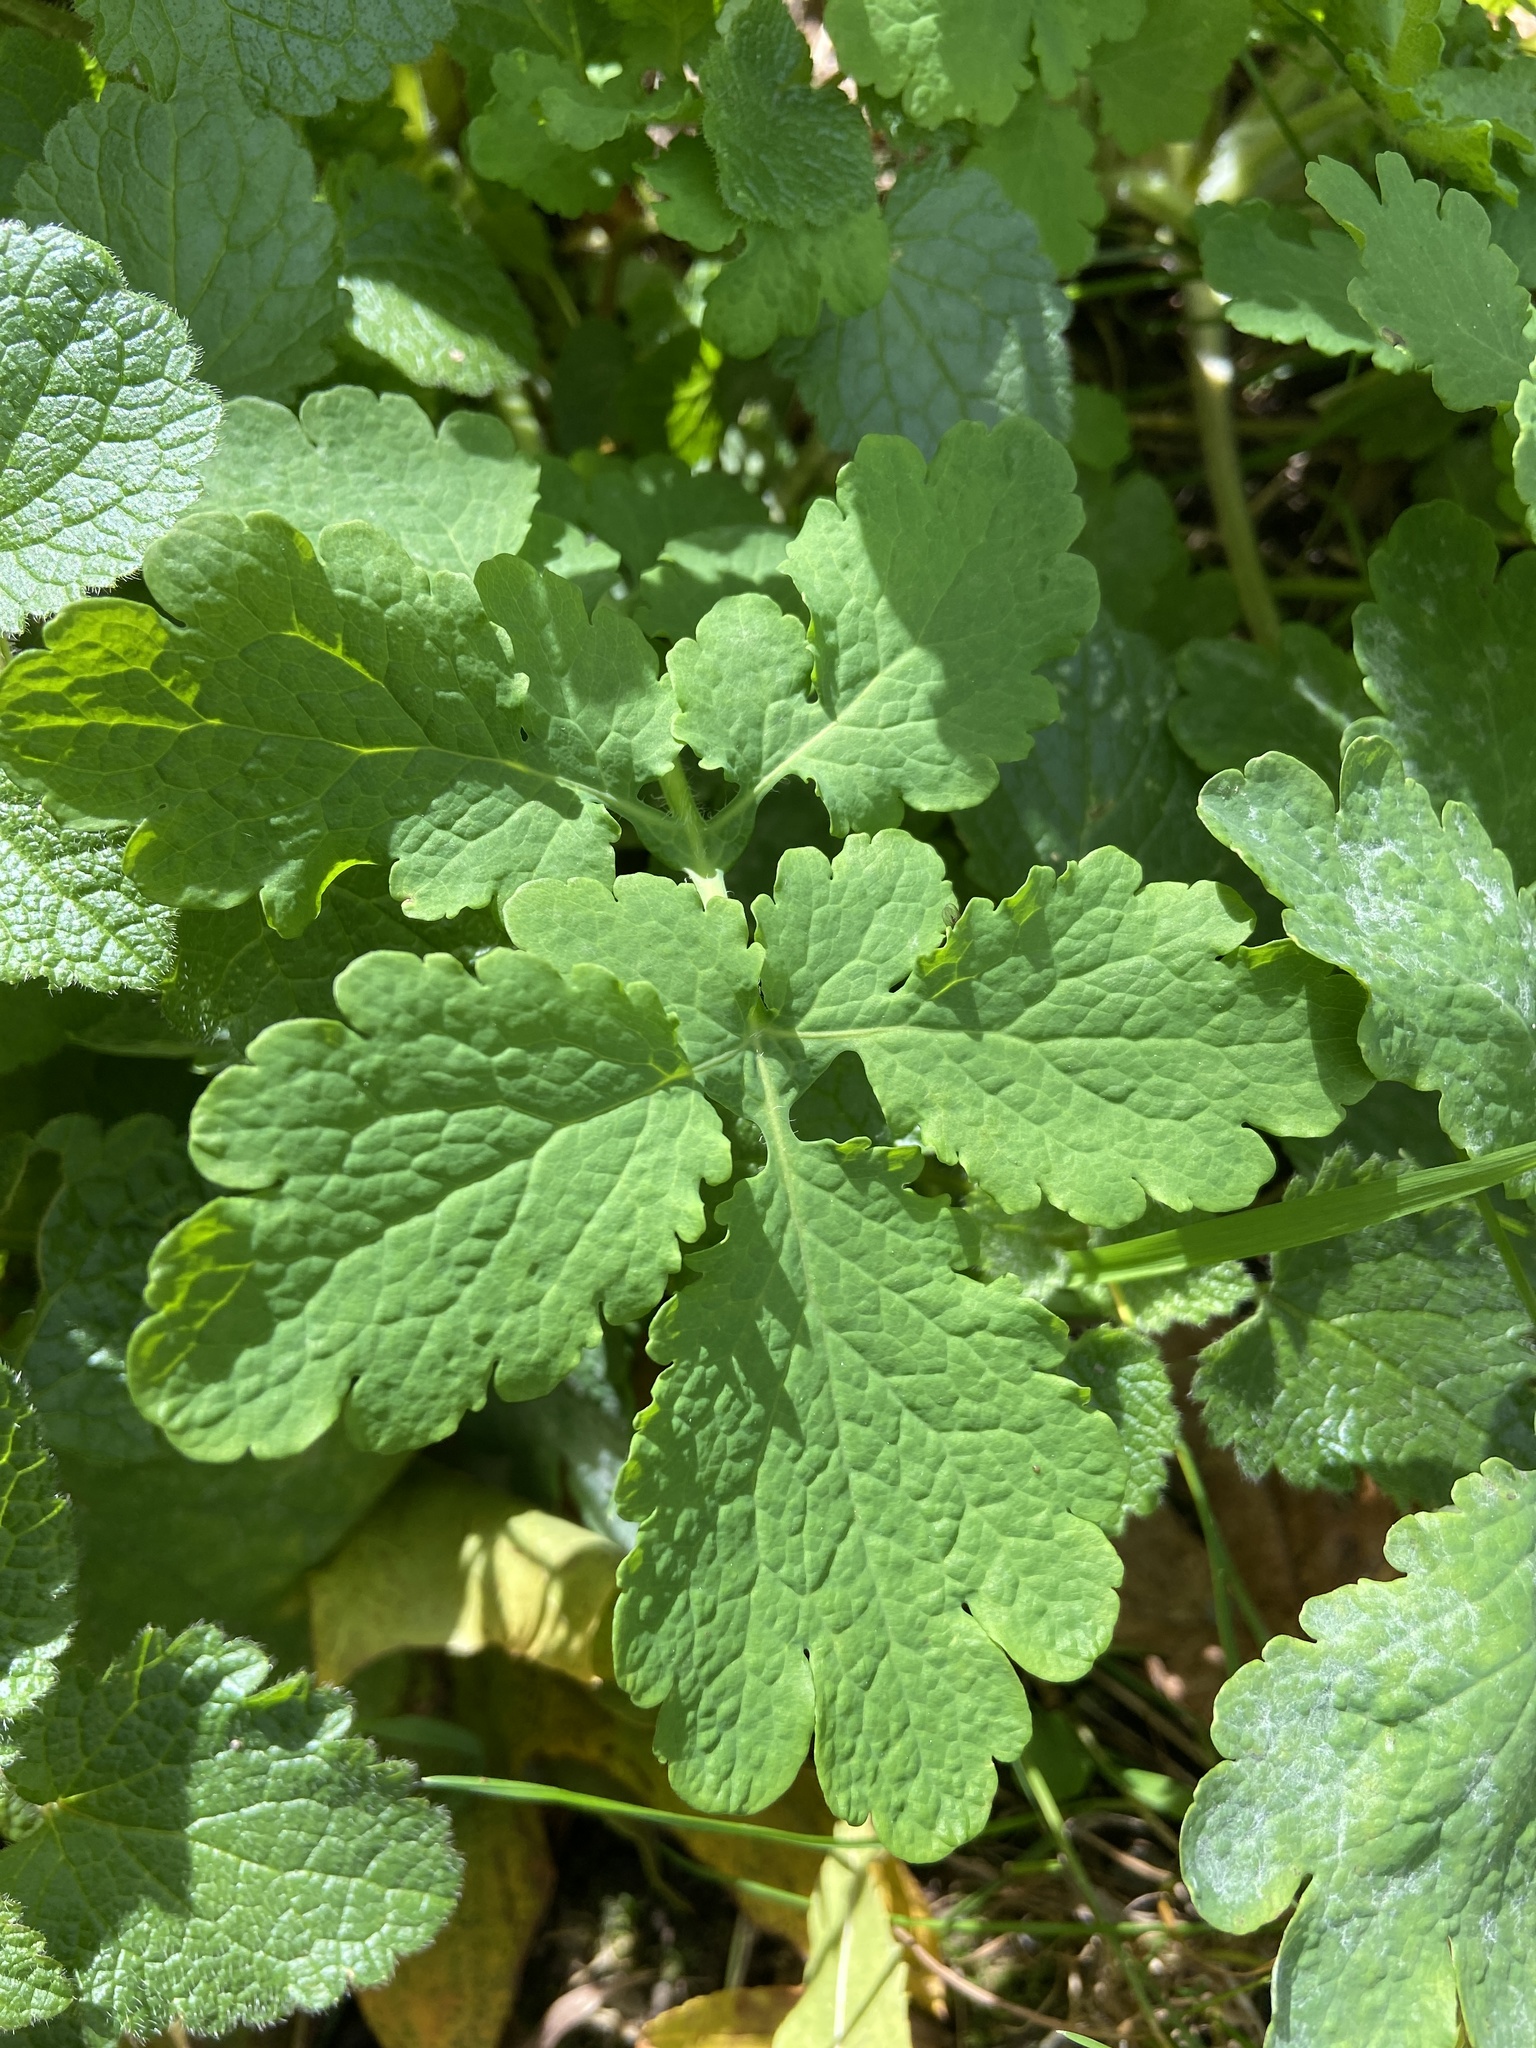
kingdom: Plantae
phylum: Tracheophyta
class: Magnoliopsida
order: Ranunculales
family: Papaveraceae
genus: Chelidonium
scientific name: Chelidonium majus
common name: Greater celandine
